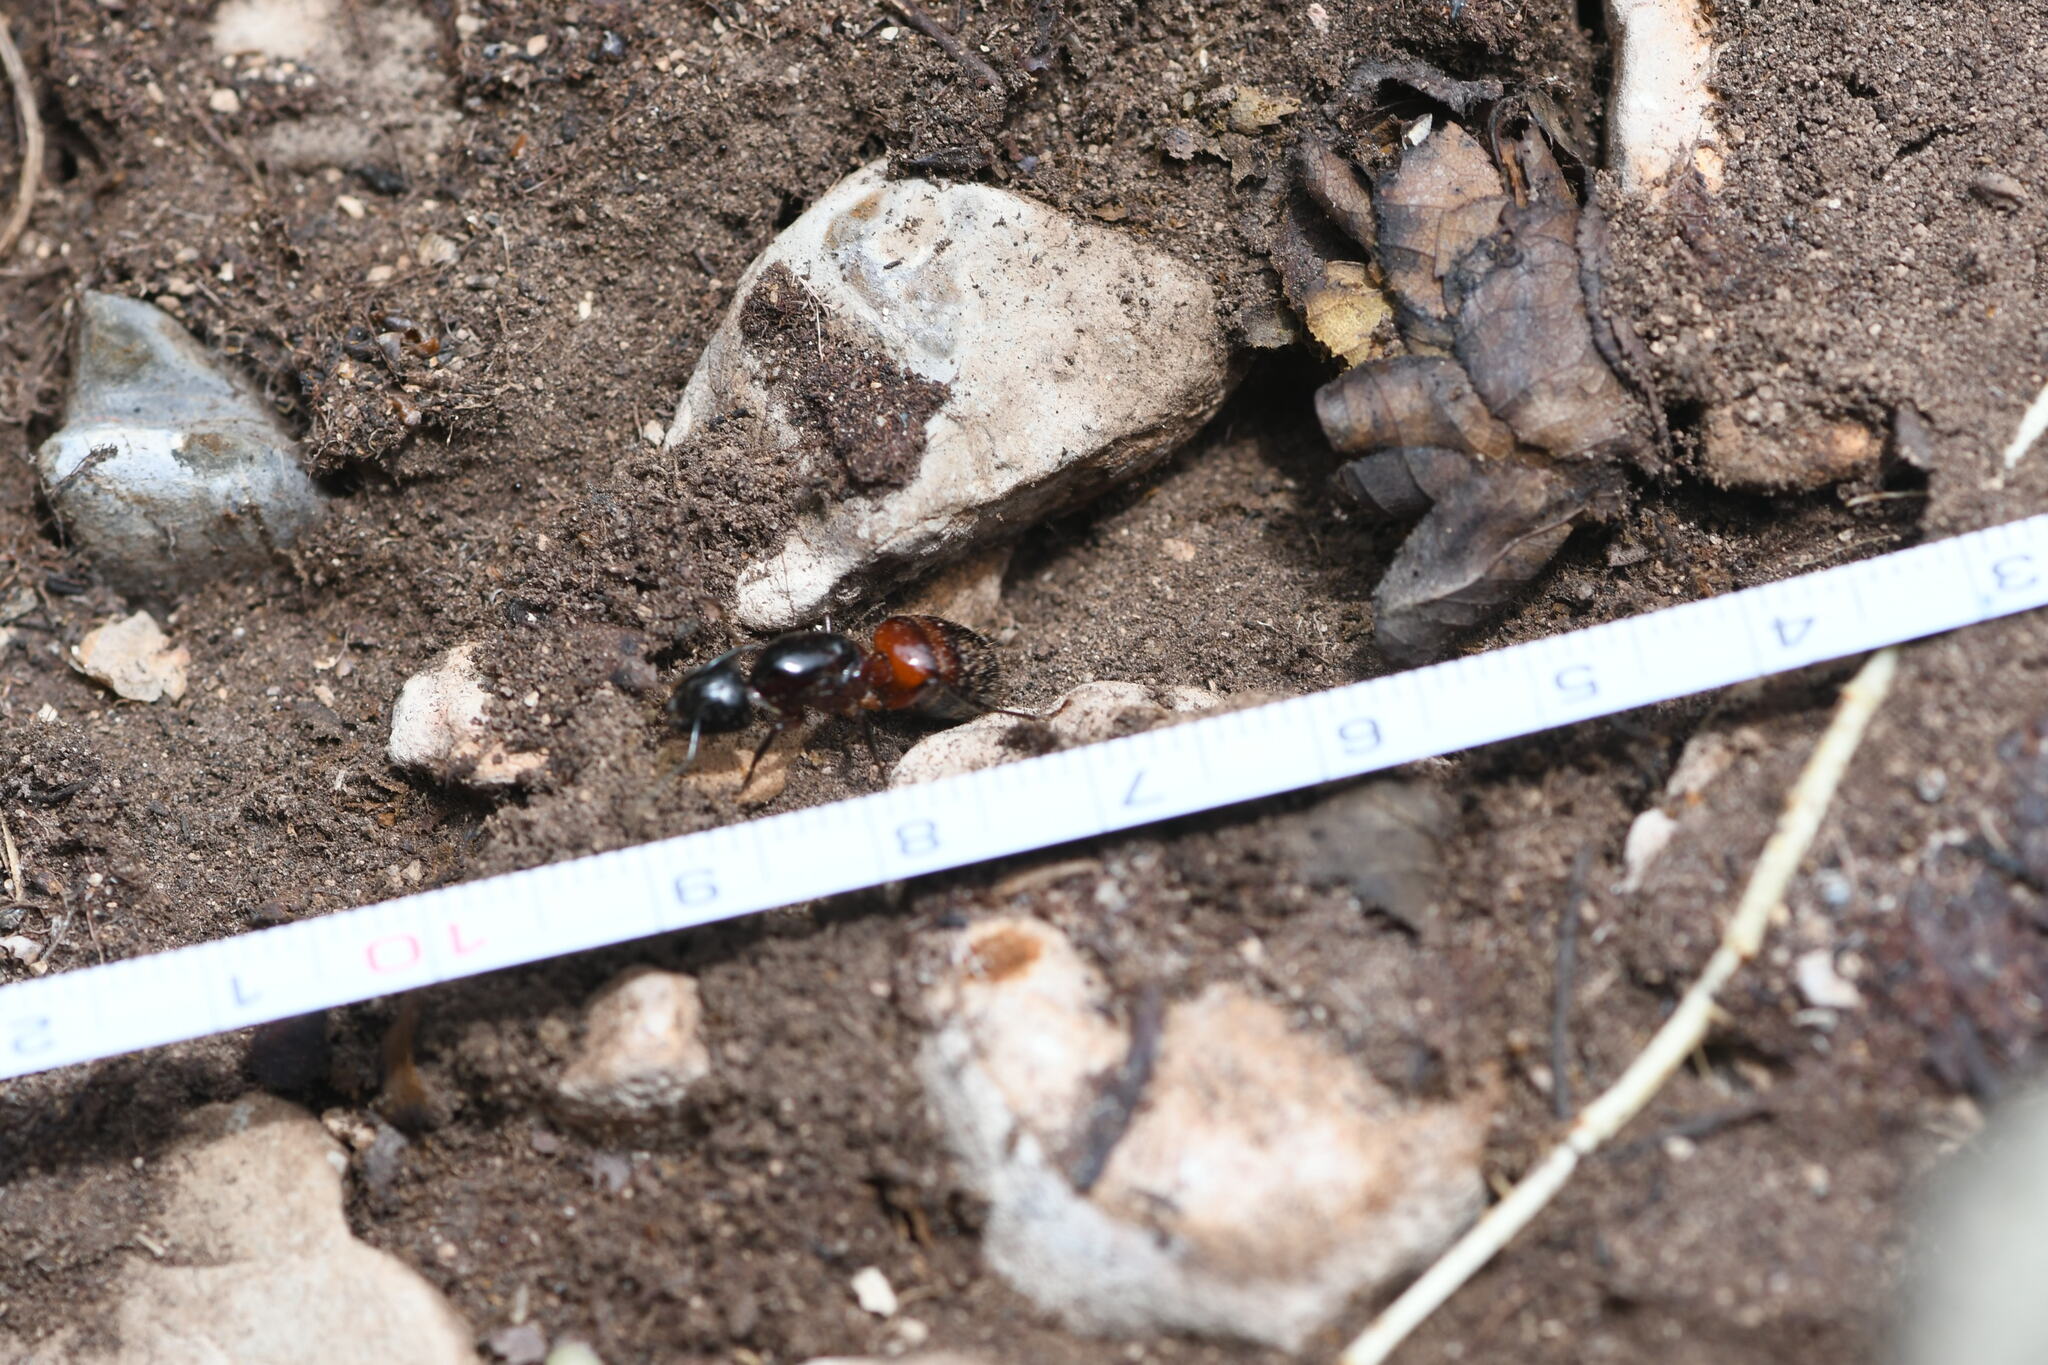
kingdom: Animalia
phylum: Arthropoda
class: Insecta
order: Hymenoptera
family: Formicidae
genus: Camponotus
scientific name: Camponotus ligniperdus
